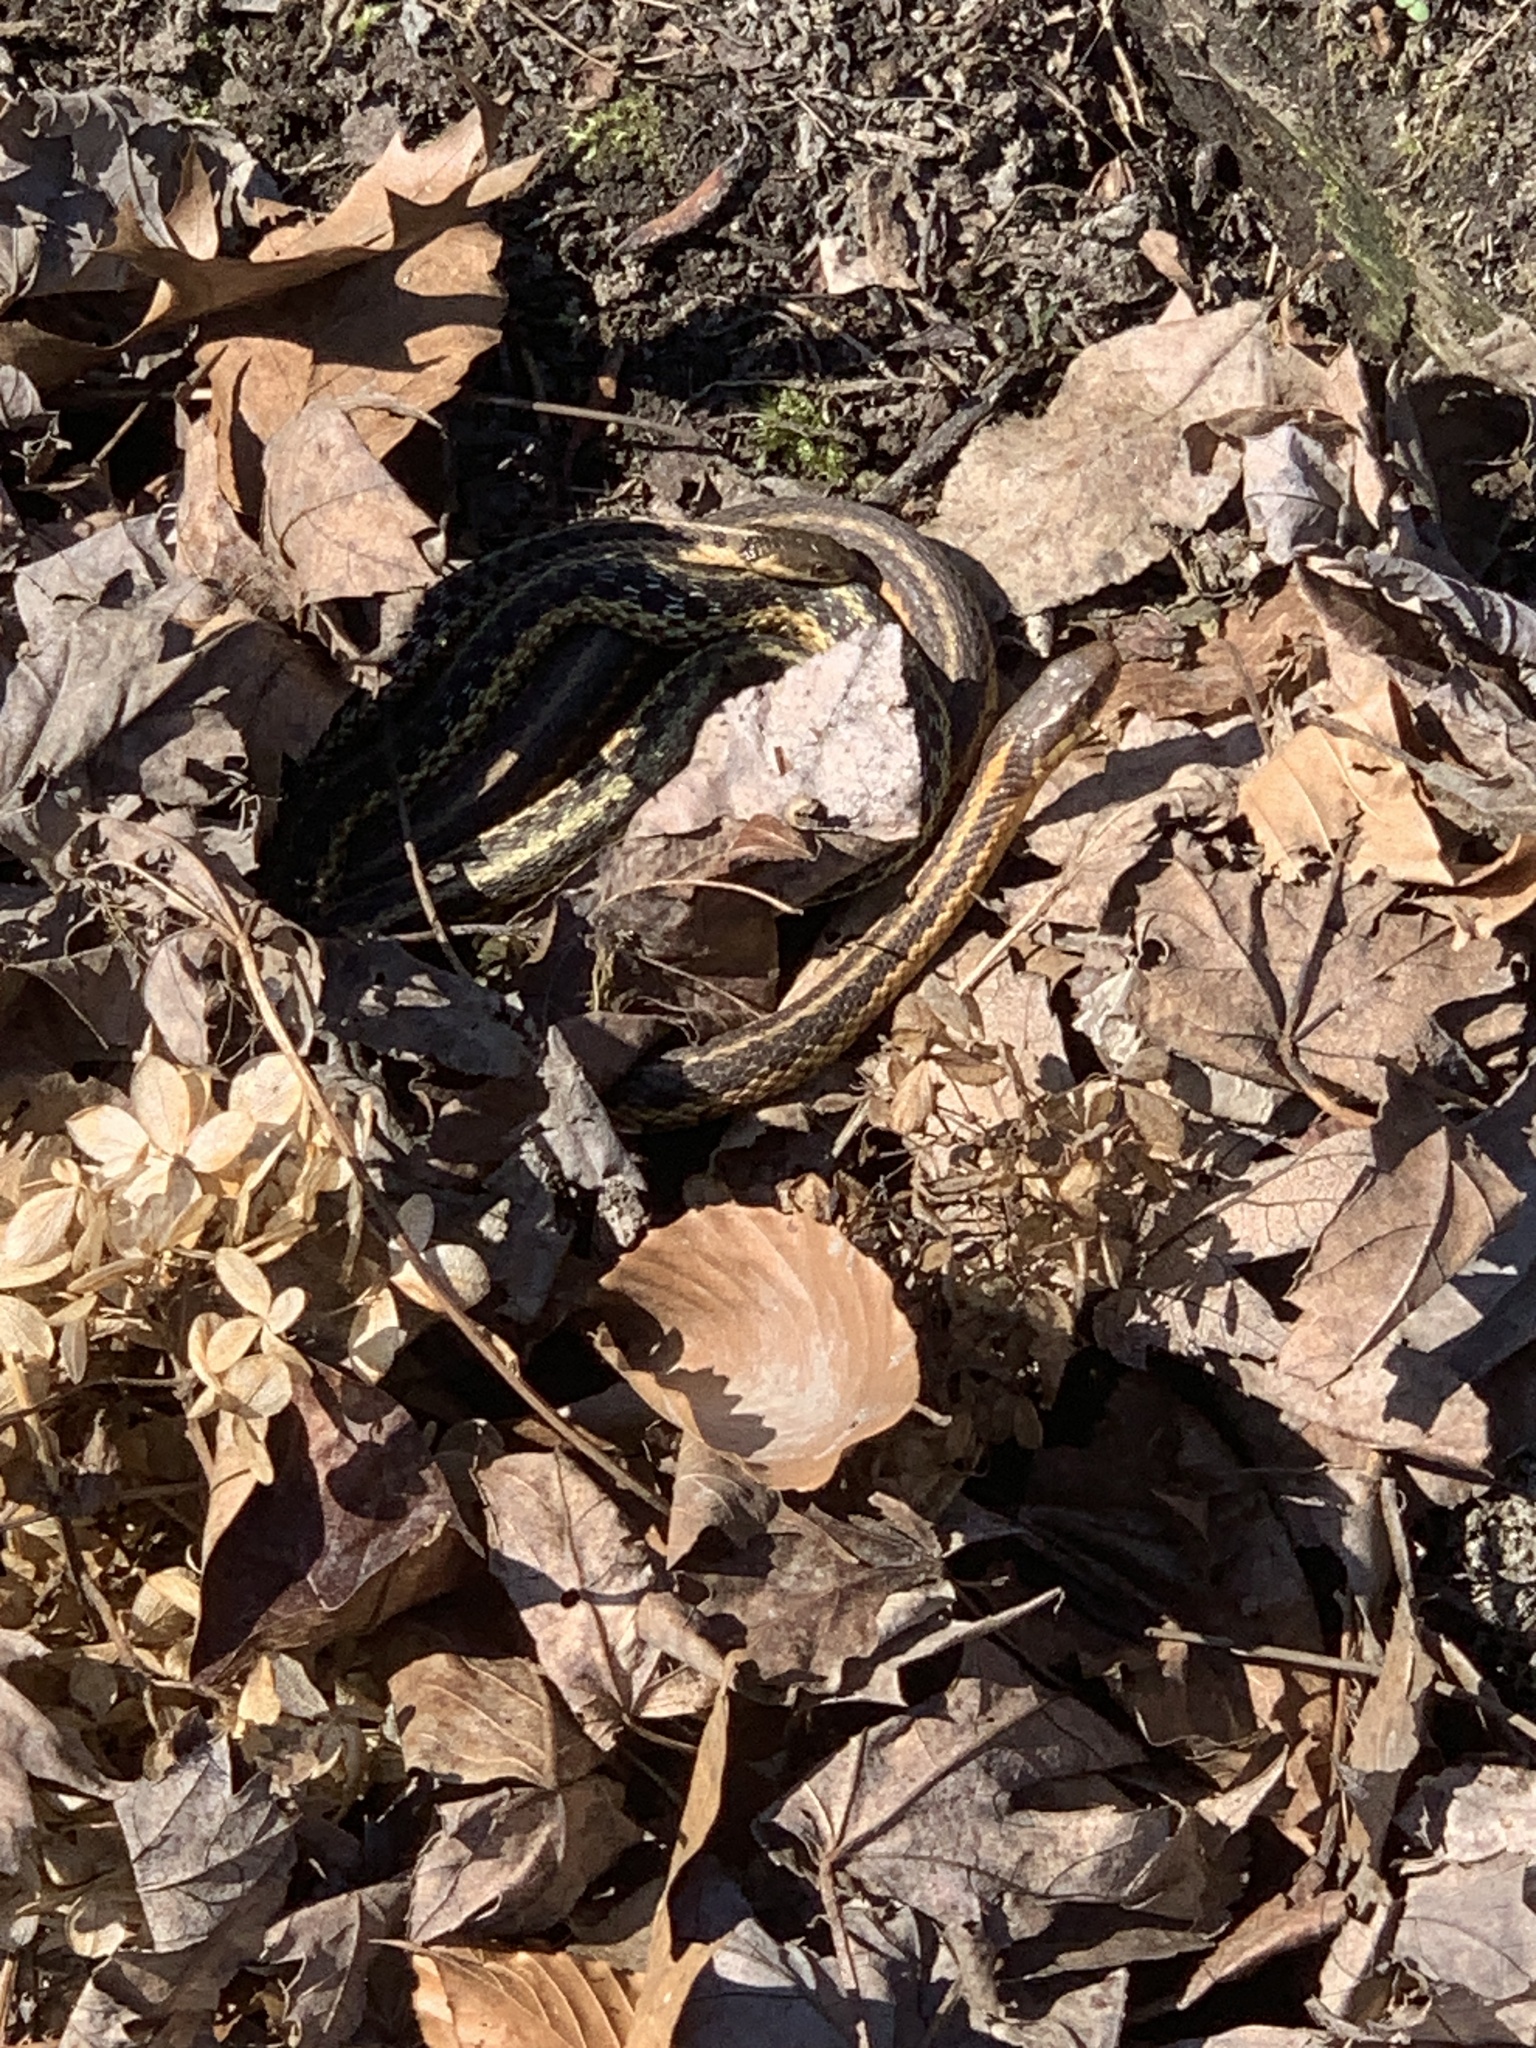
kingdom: Animalia
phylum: Chordata
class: Squamata
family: Colubridae
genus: Thamnophis
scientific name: Thamnophis sirtalis
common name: Common garter snake
